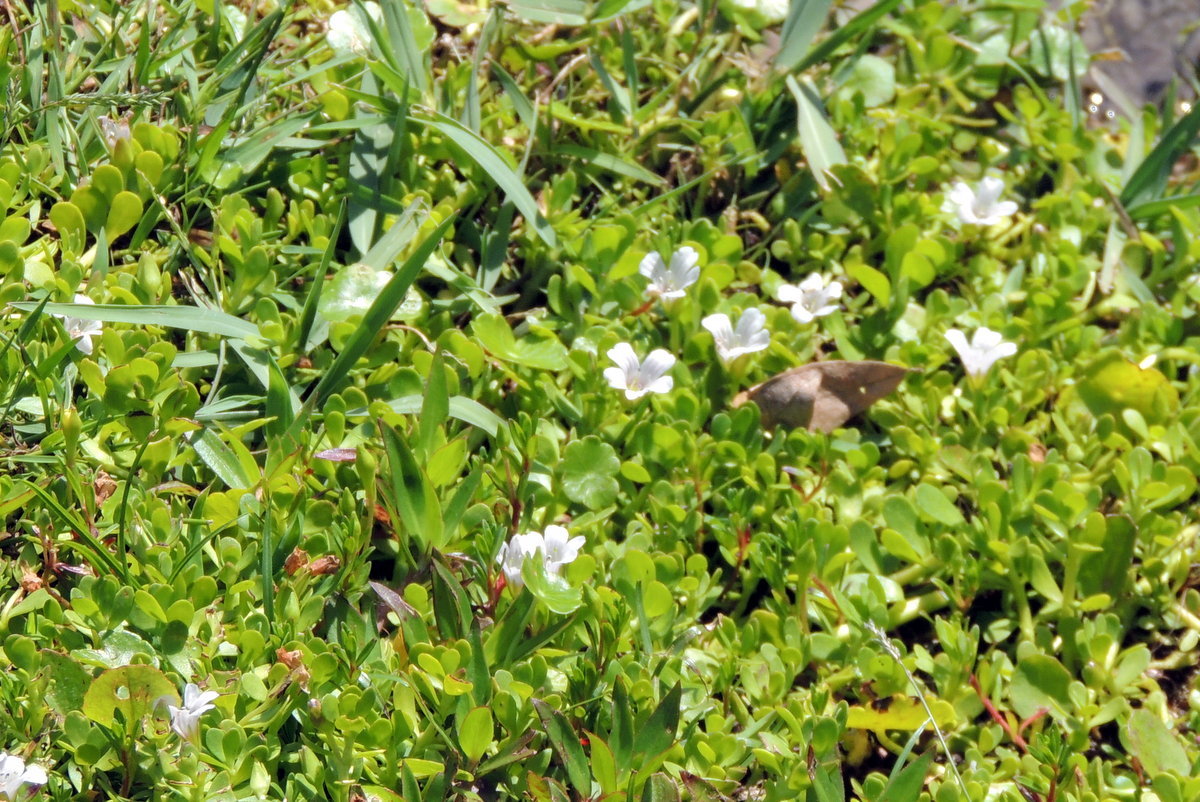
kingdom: Plantae
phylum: Tracheophyta
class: Magnoliopsida
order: Lamiales
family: Plantaginaceae
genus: Bacopa
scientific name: Bacopa monnieri
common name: Indian-pennywort
